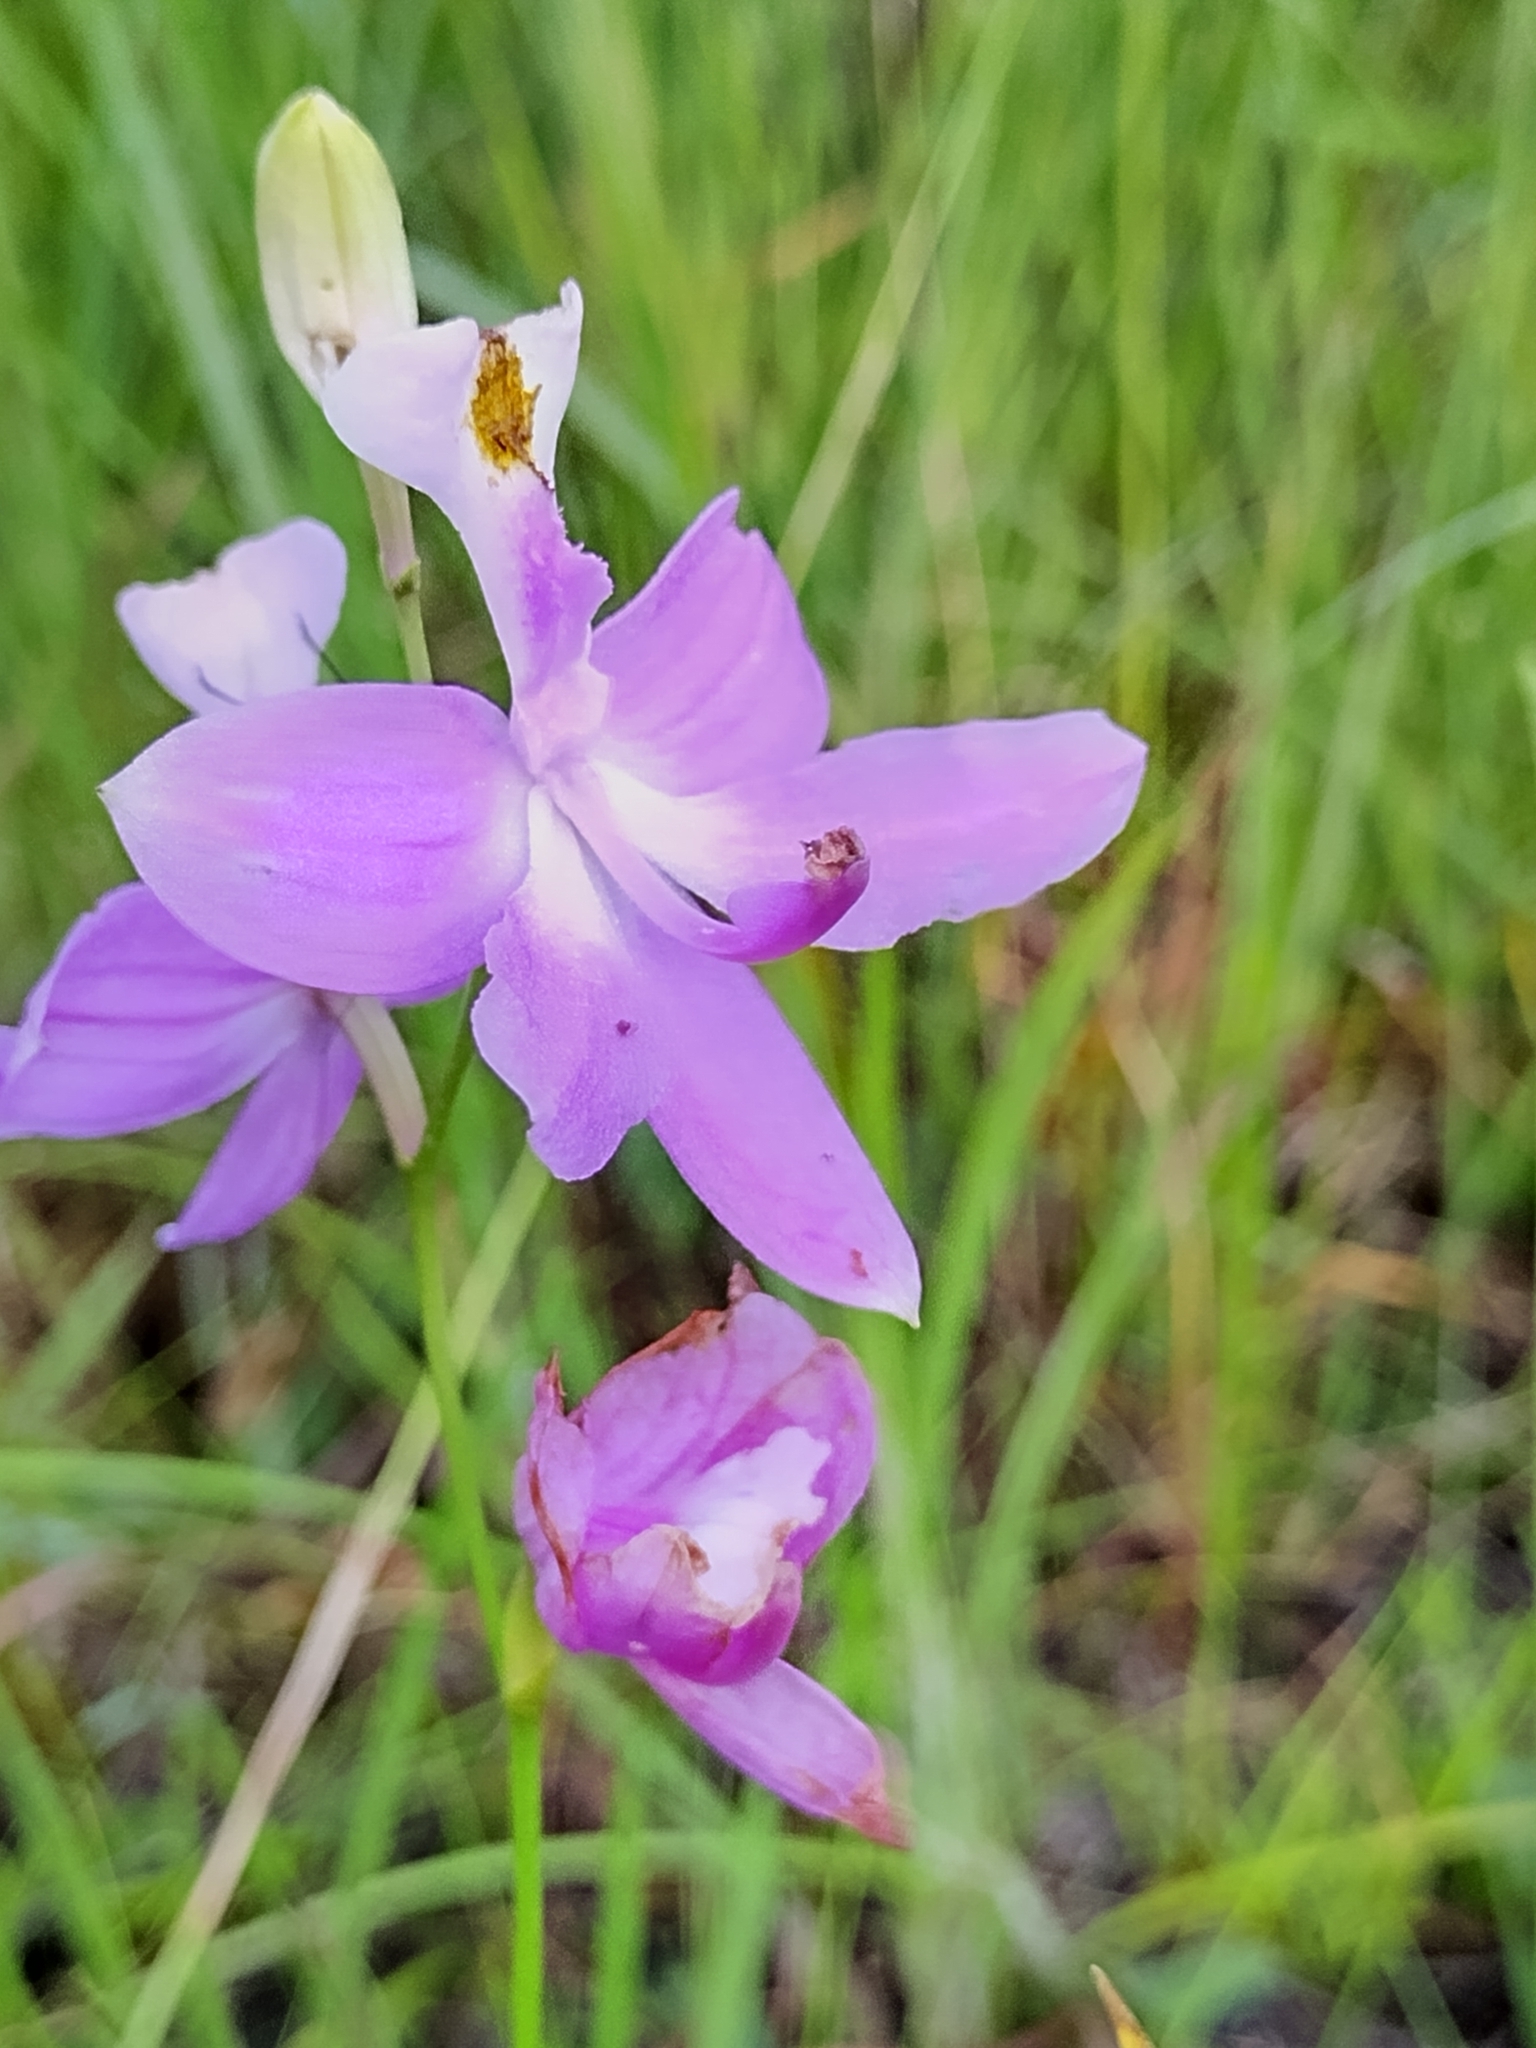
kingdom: Plantae
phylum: Tracheophyta
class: Liliopsida
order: Asparagales
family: Orchidaceae
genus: Calopogon
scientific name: Calopogon tuberosus
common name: Grass-pink
